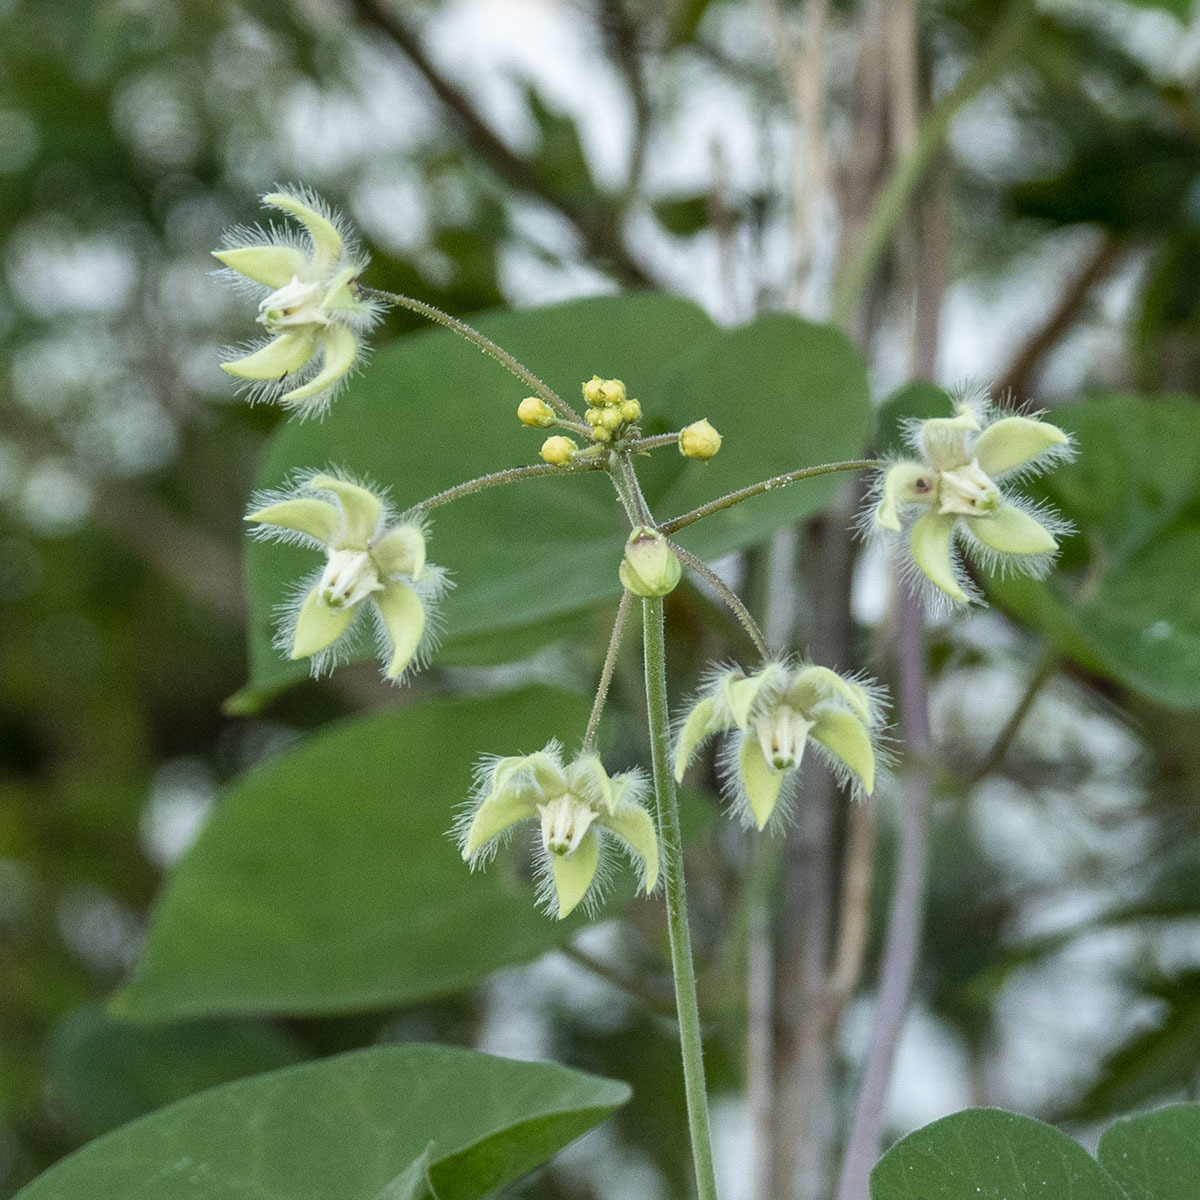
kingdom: Plantae
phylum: Tracheophyta
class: Magnoliopsida
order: Gentianales
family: Apocynaceae
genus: Pergularia
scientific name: Pergularia daemia
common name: Trellis-vine
